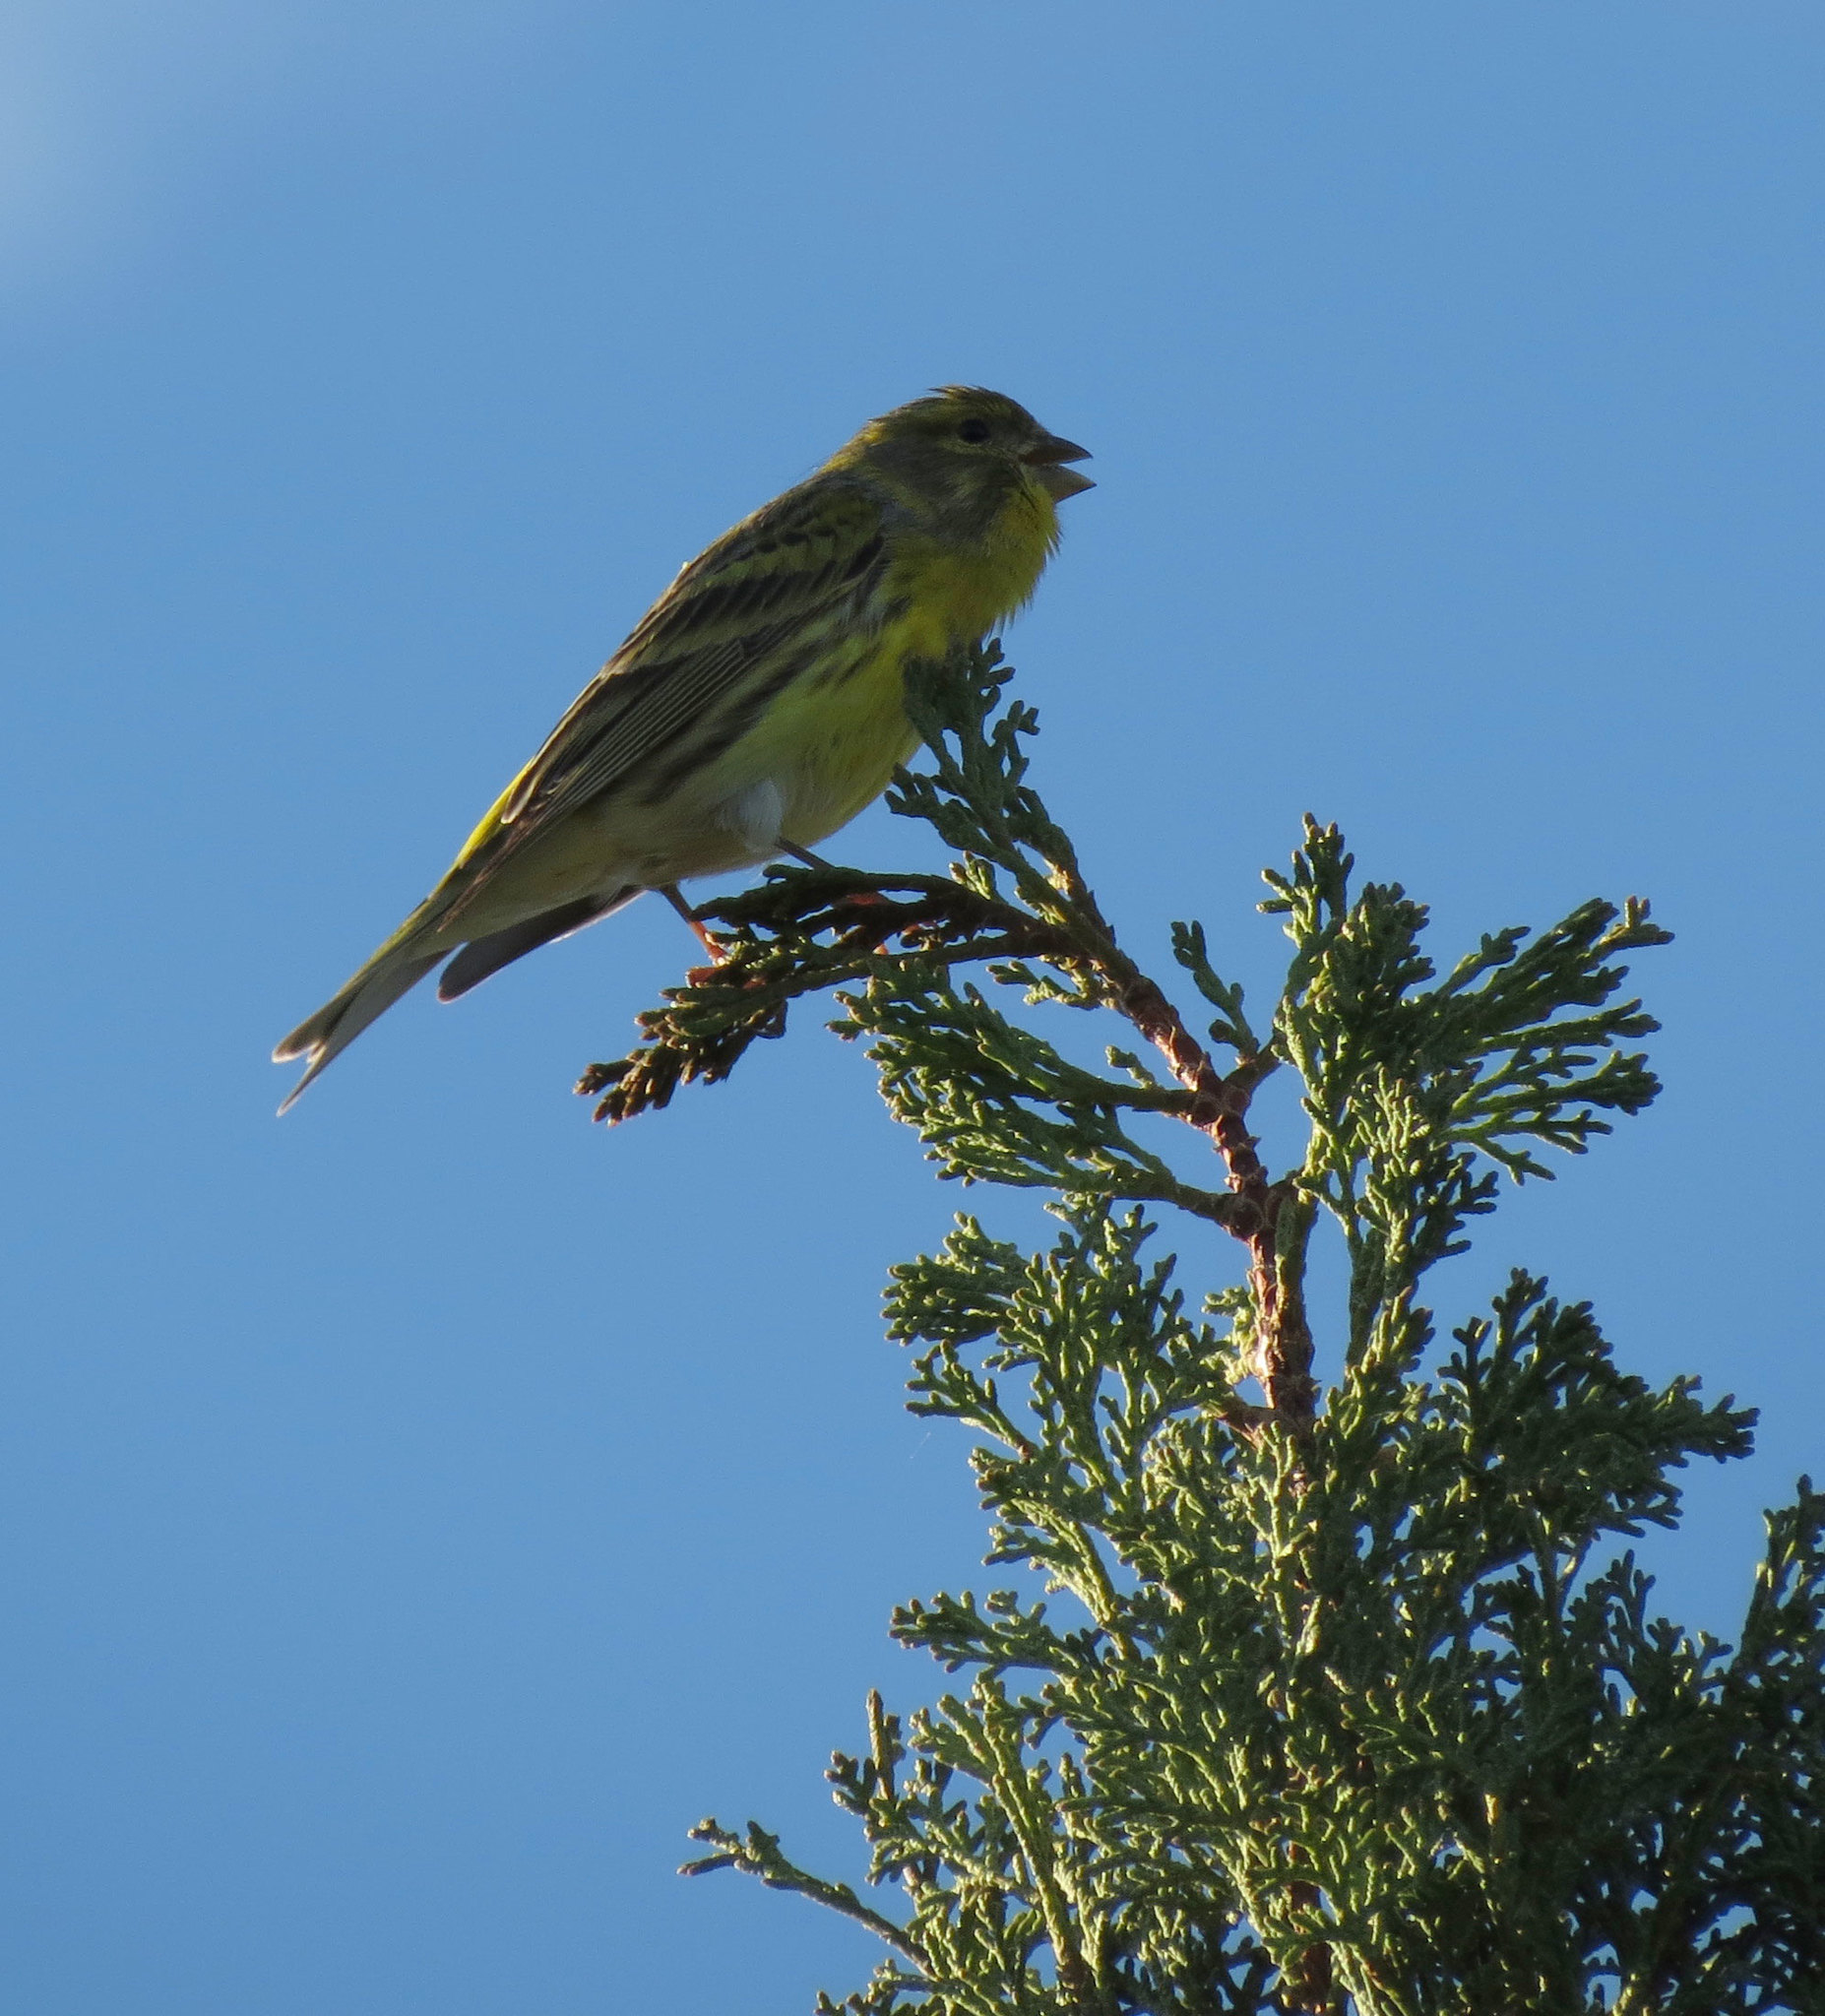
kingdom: Animalia
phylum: Chordata
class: Aves
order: Passeriformes
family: Fringillidae
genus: Serinus
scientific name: Serinus serinus
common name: European serin
